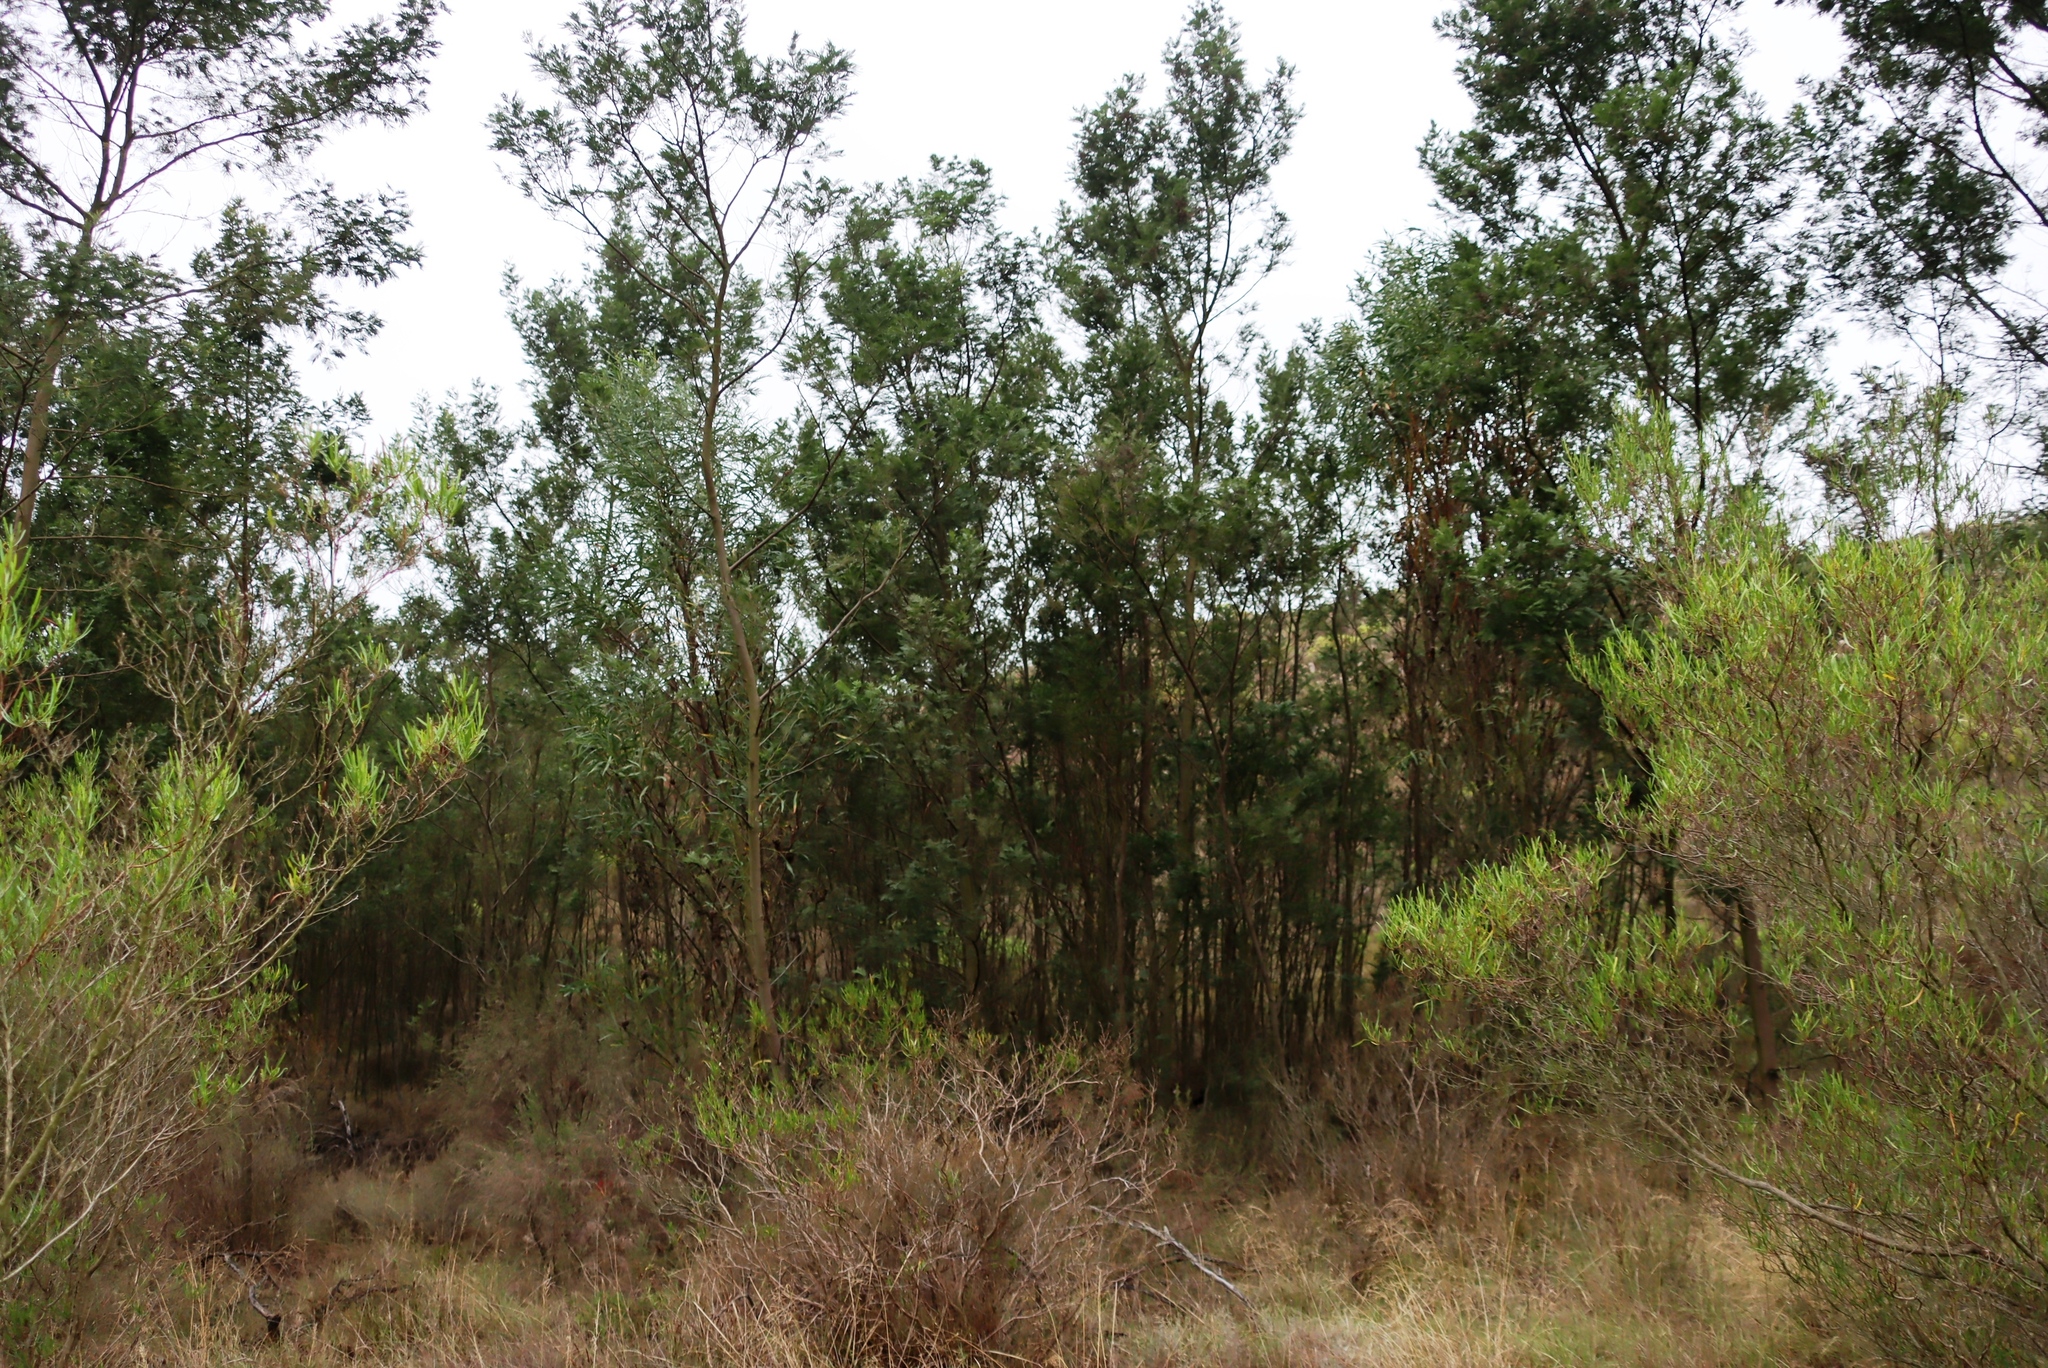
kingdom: Animalia
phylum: Arthropoda
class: Insecta
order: Diptera
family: Cecidomyiidae
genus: Dasineura
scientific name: Dasineura rubiformis
